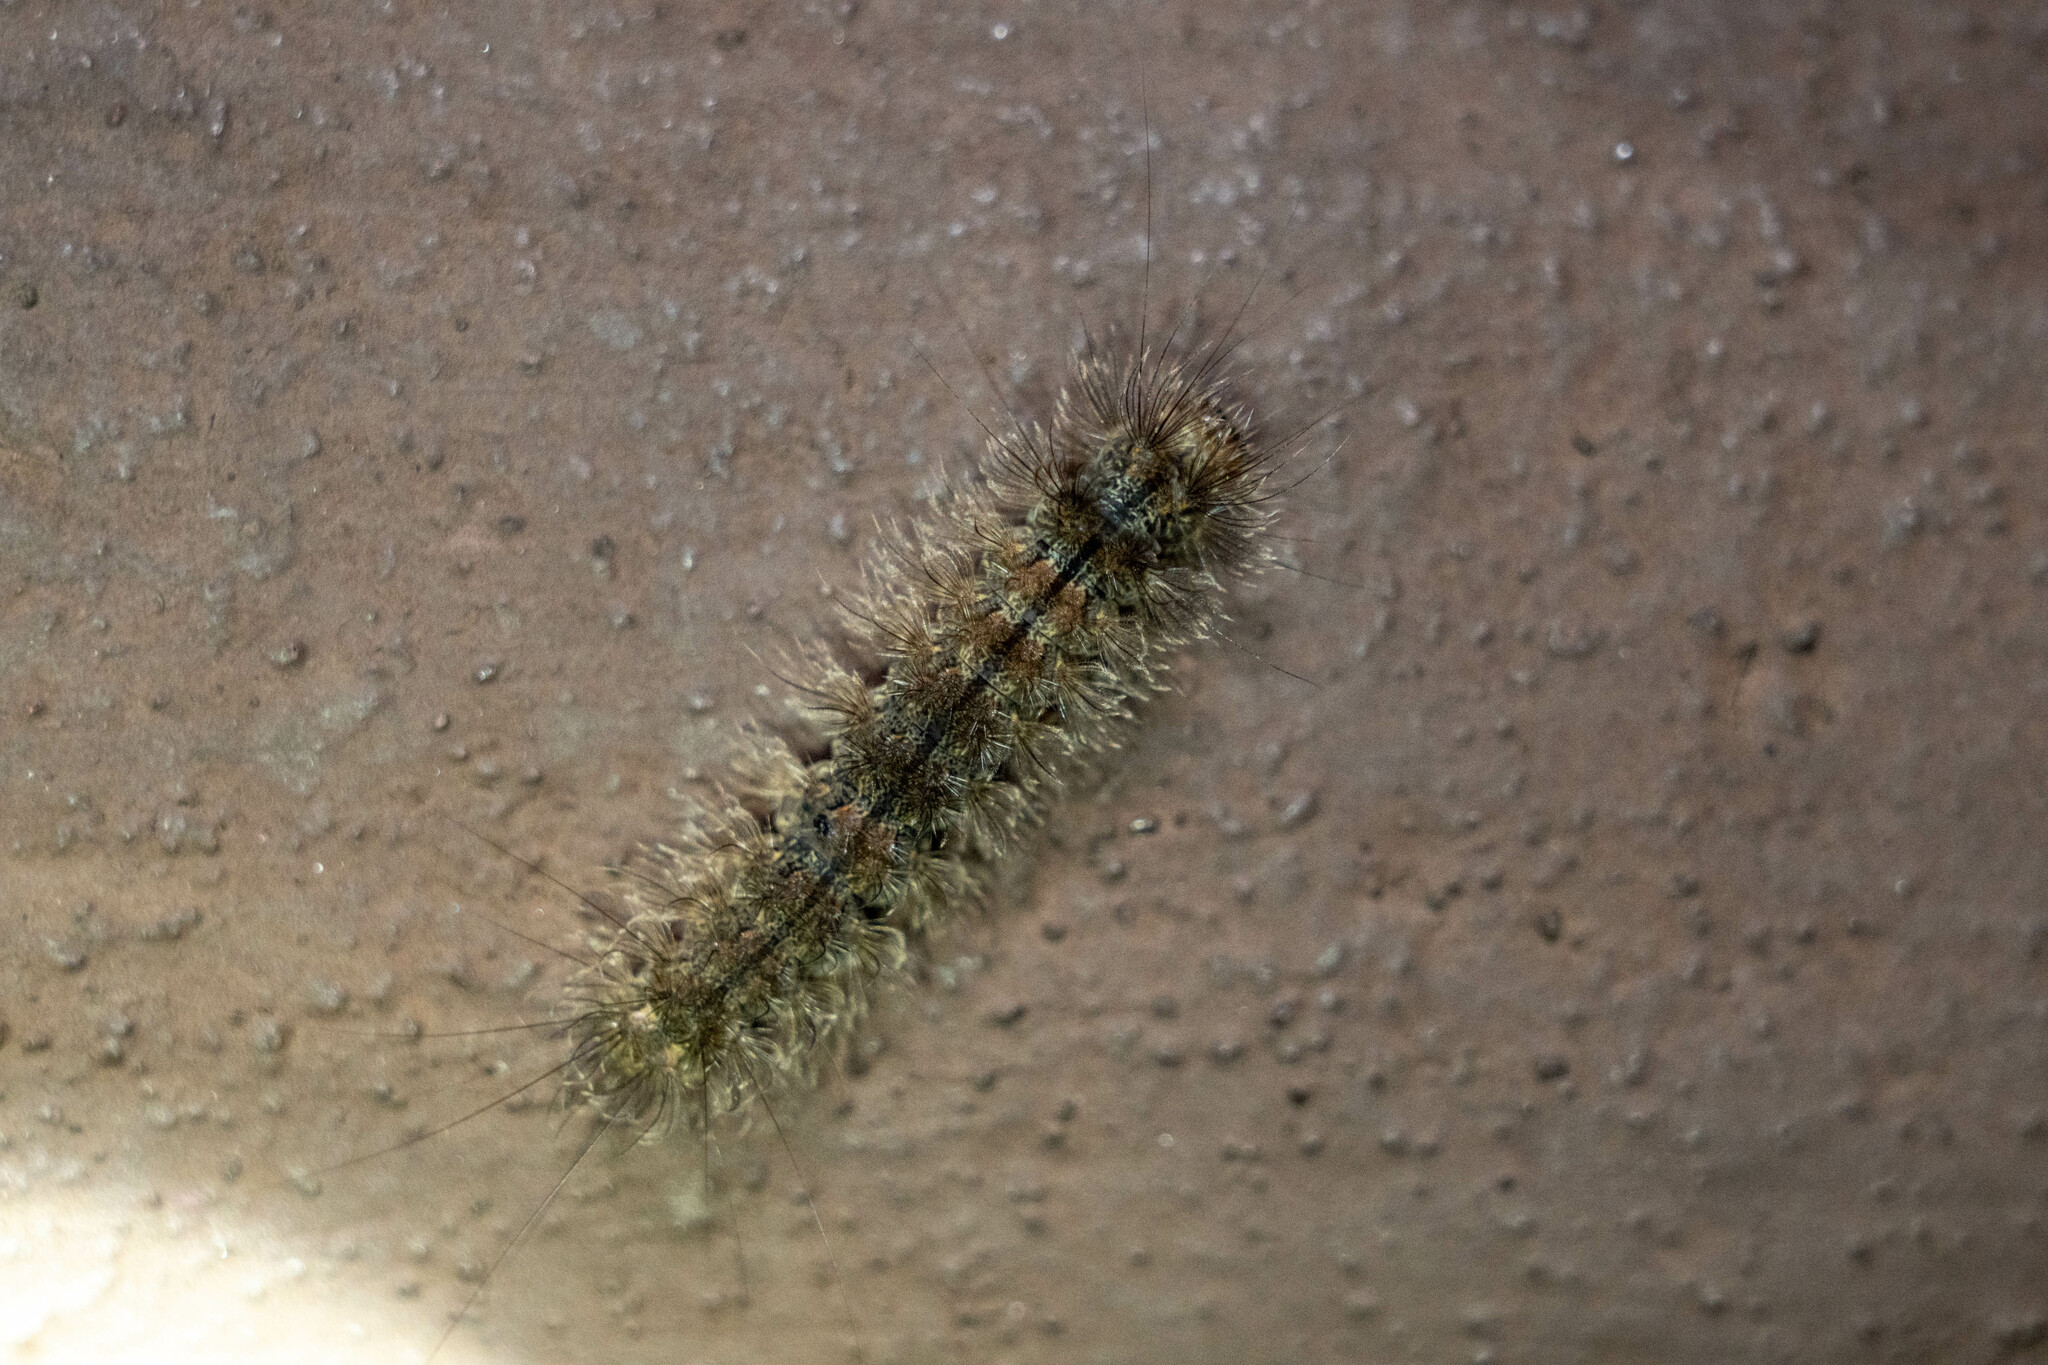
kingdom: Animalia
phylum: Arthropoda
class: Insecta
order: Lepidoptera
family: Erebidae
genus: Brunia
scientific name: Brunia antica
